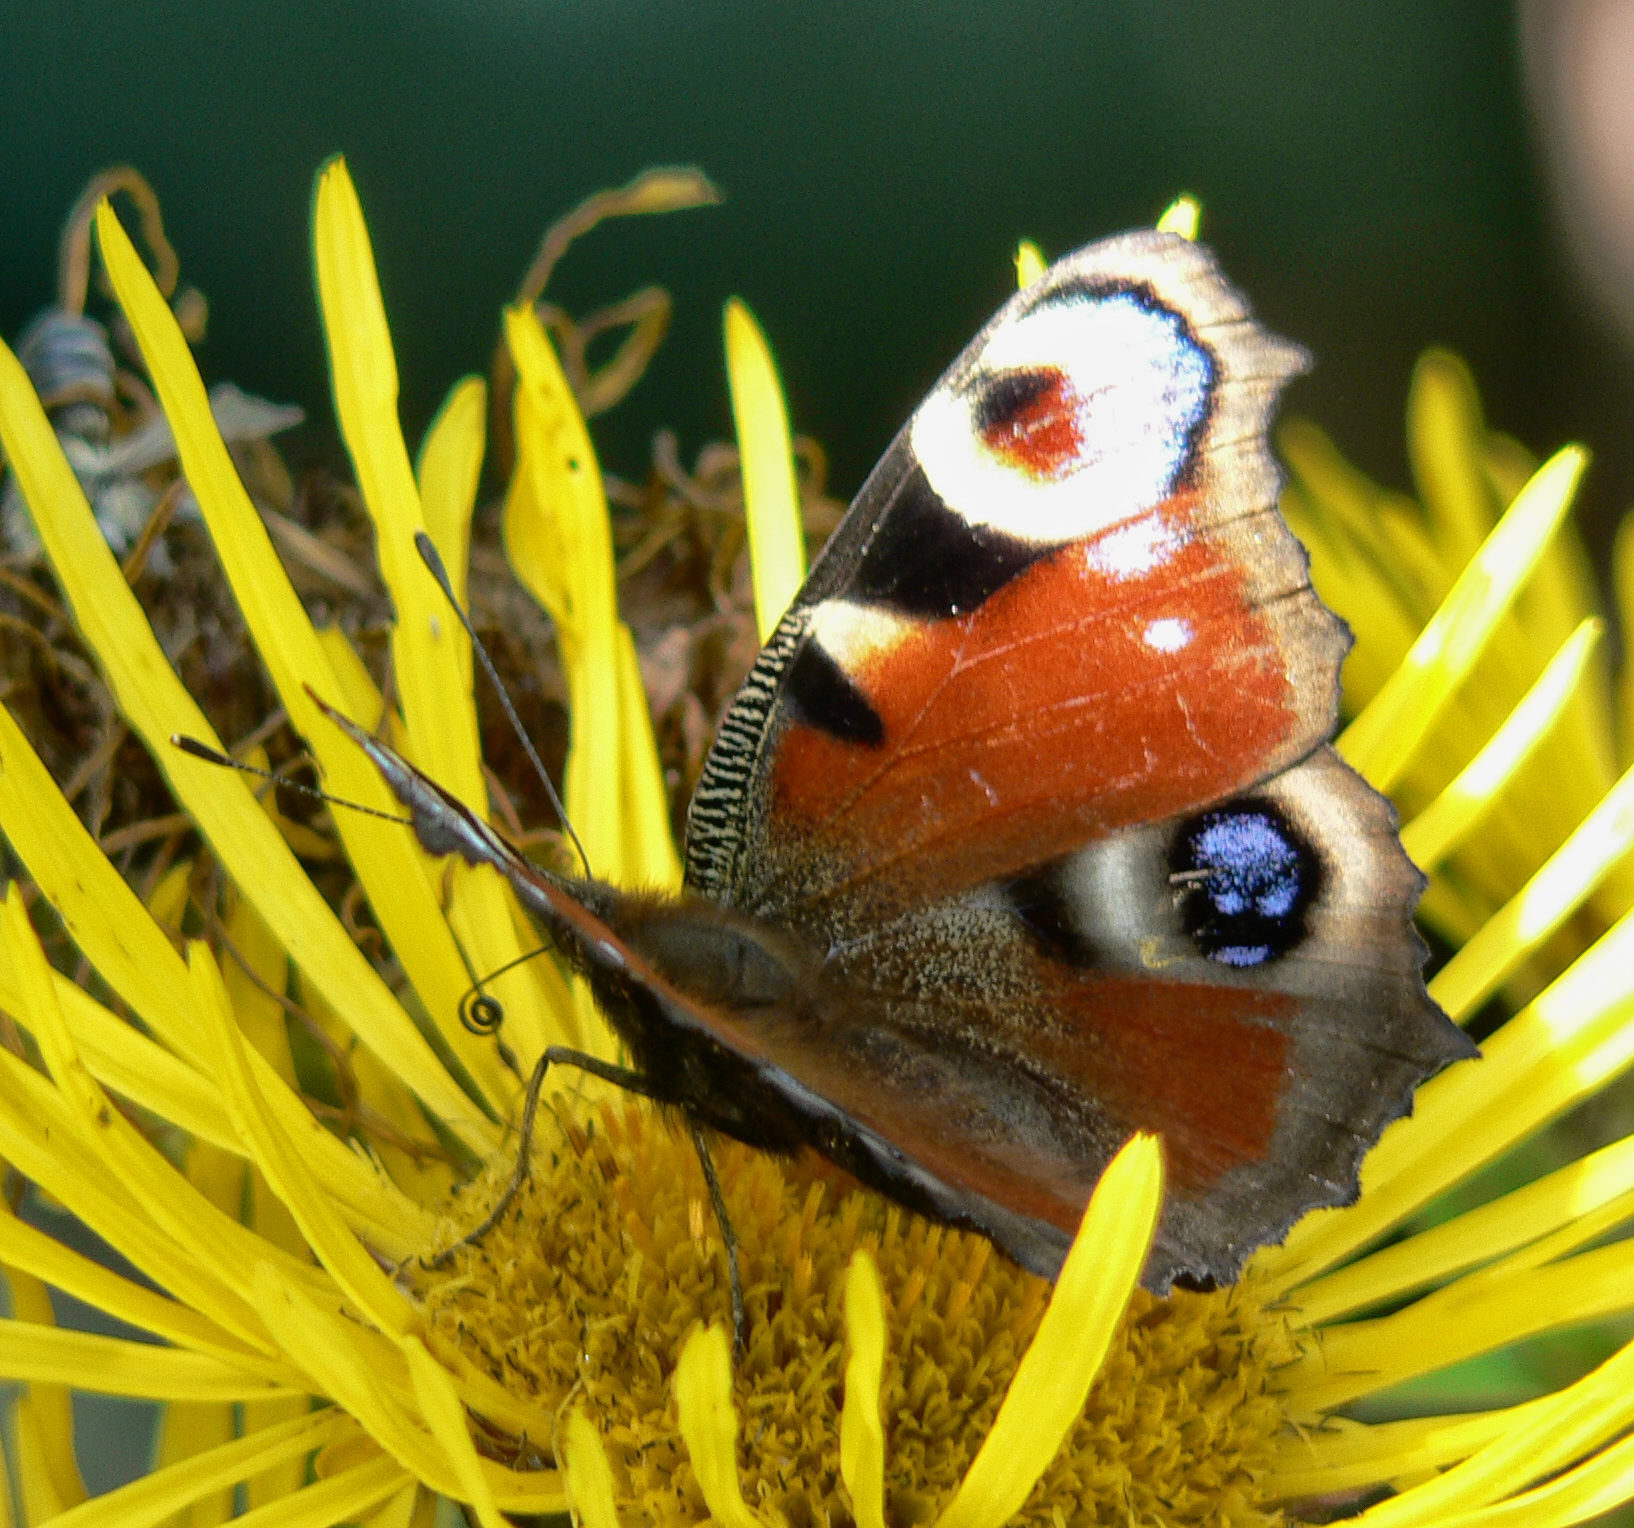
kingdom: Animalia
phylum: Arthropoda
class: Insecta
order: Lepidoptera
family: Nymphalidae
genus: Aglais
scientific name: Aglais io
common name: Peacock
